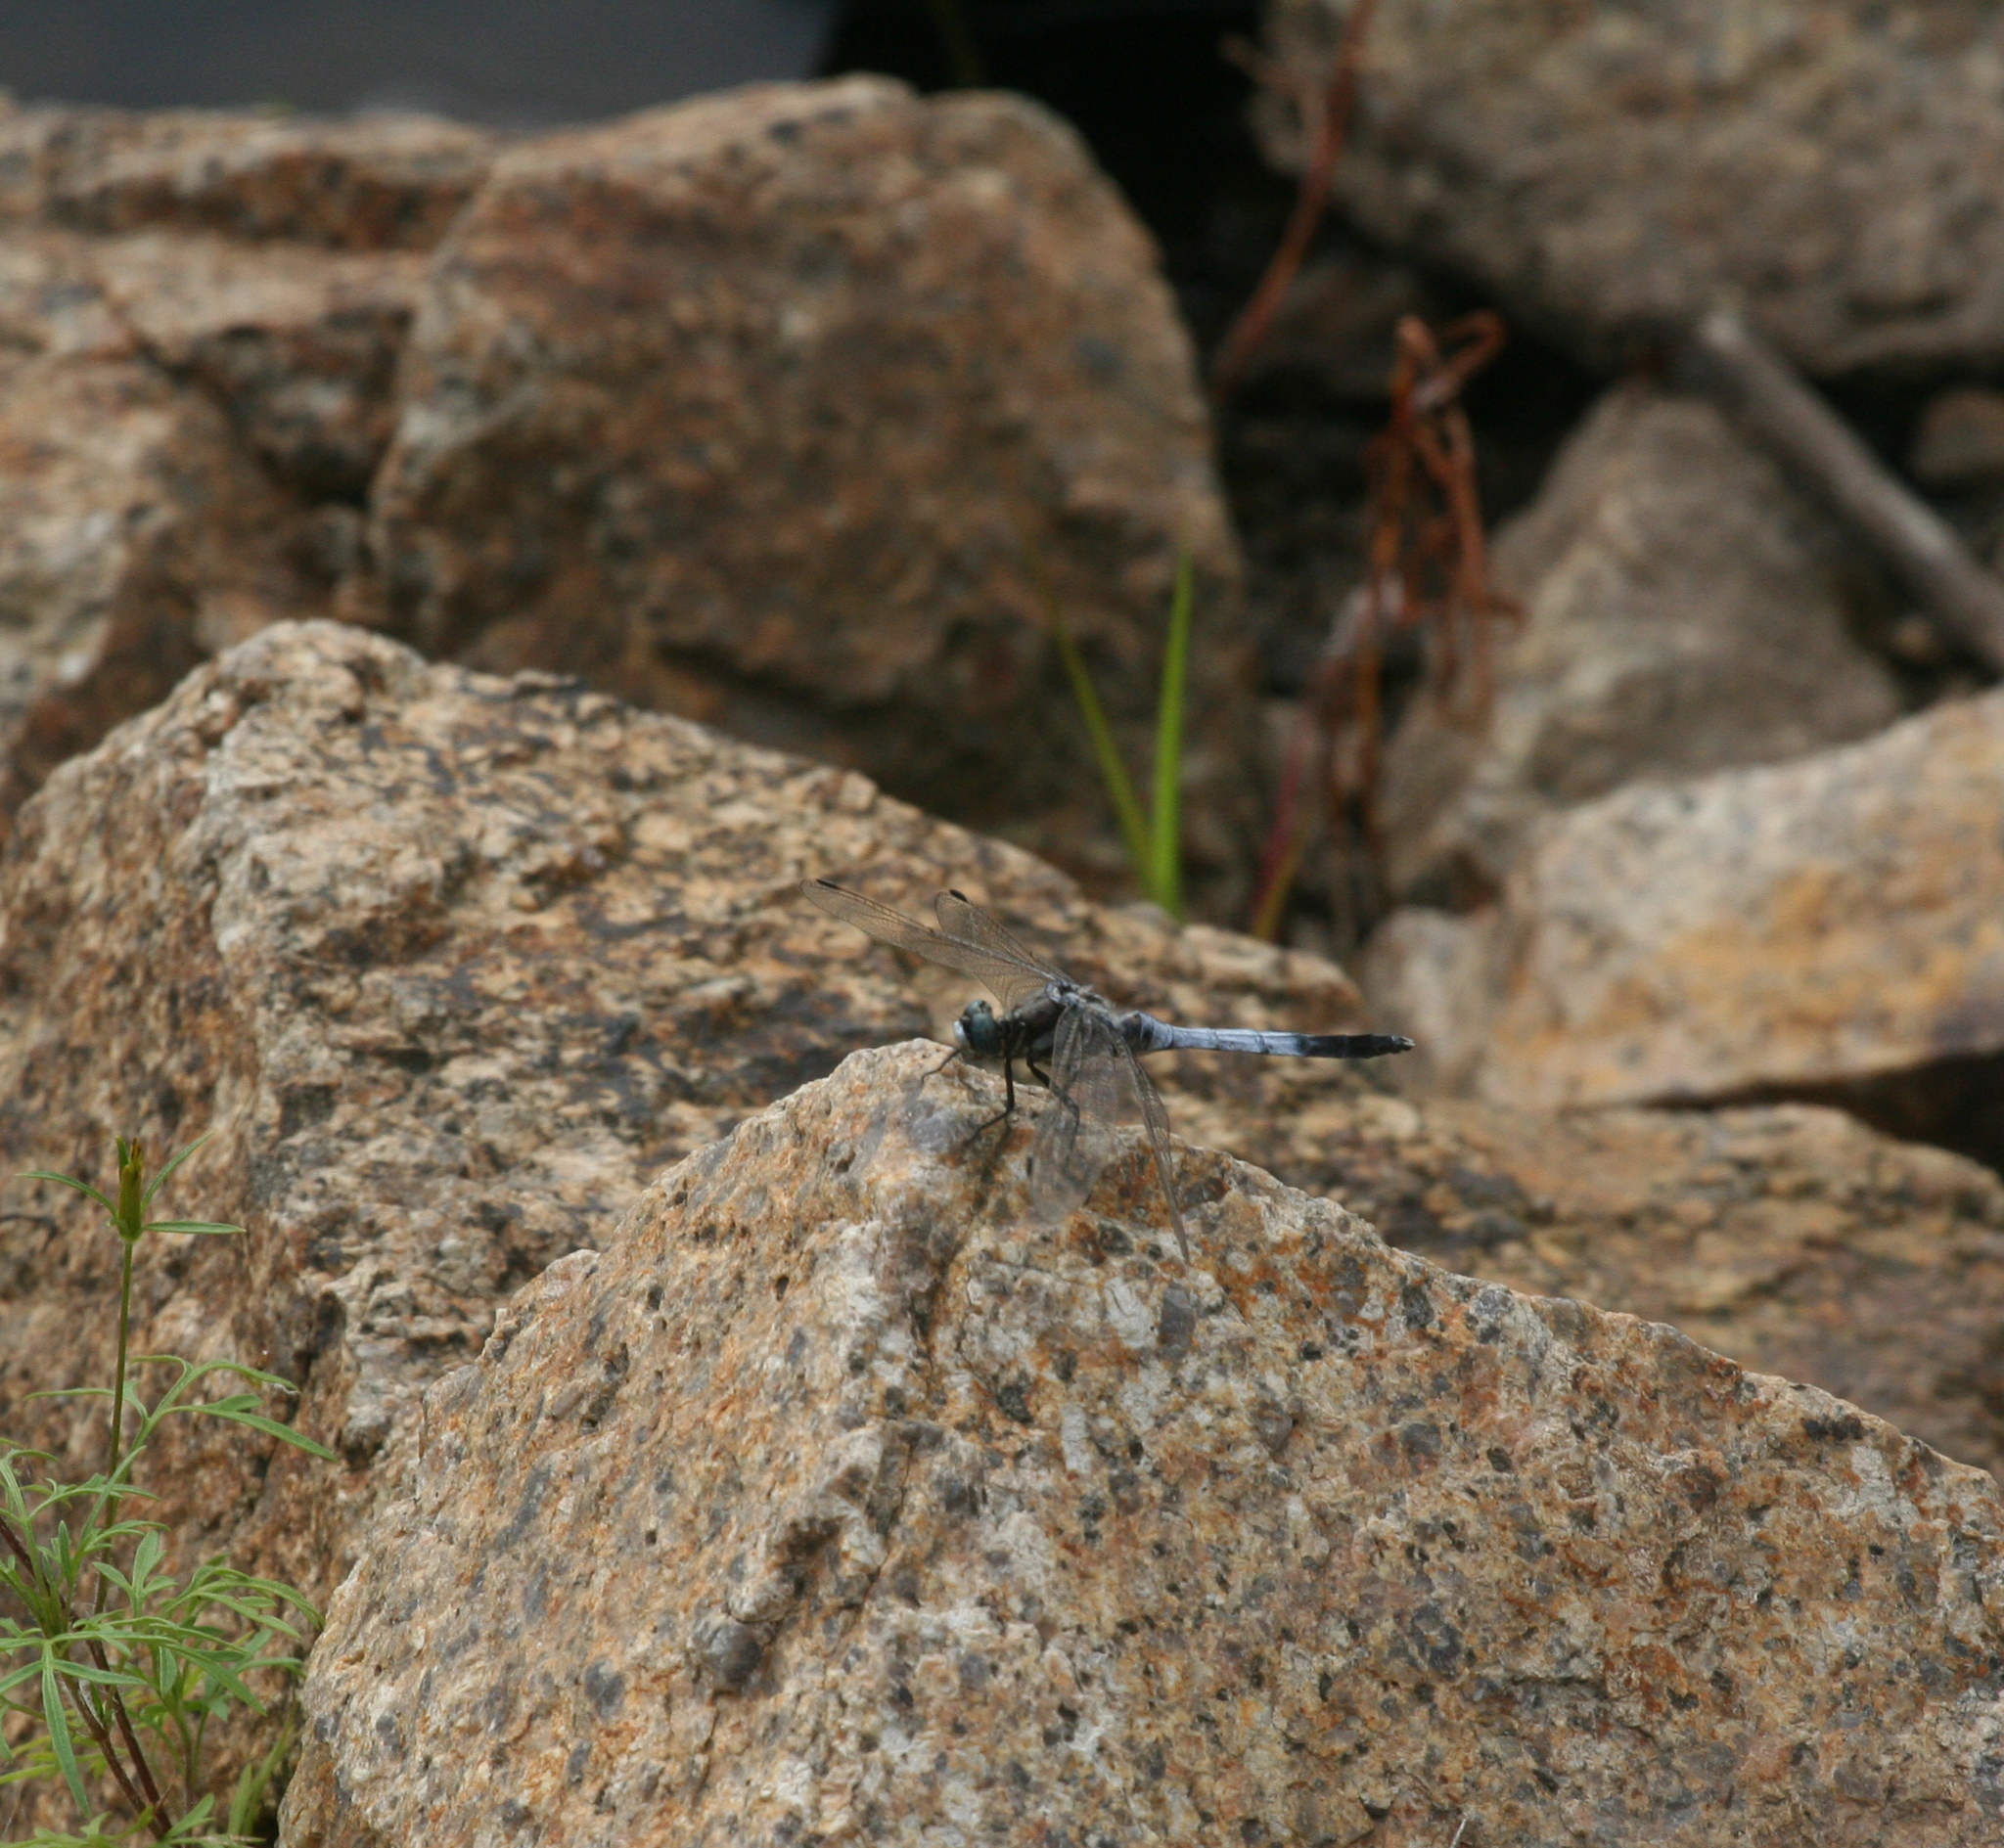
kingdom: Animalia
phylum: Arthropoda
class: Insecta
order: Odonata
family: Libellulidae
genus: Orthetrum
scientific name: Orthetrum albistylum
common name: White-tailed skimmer
